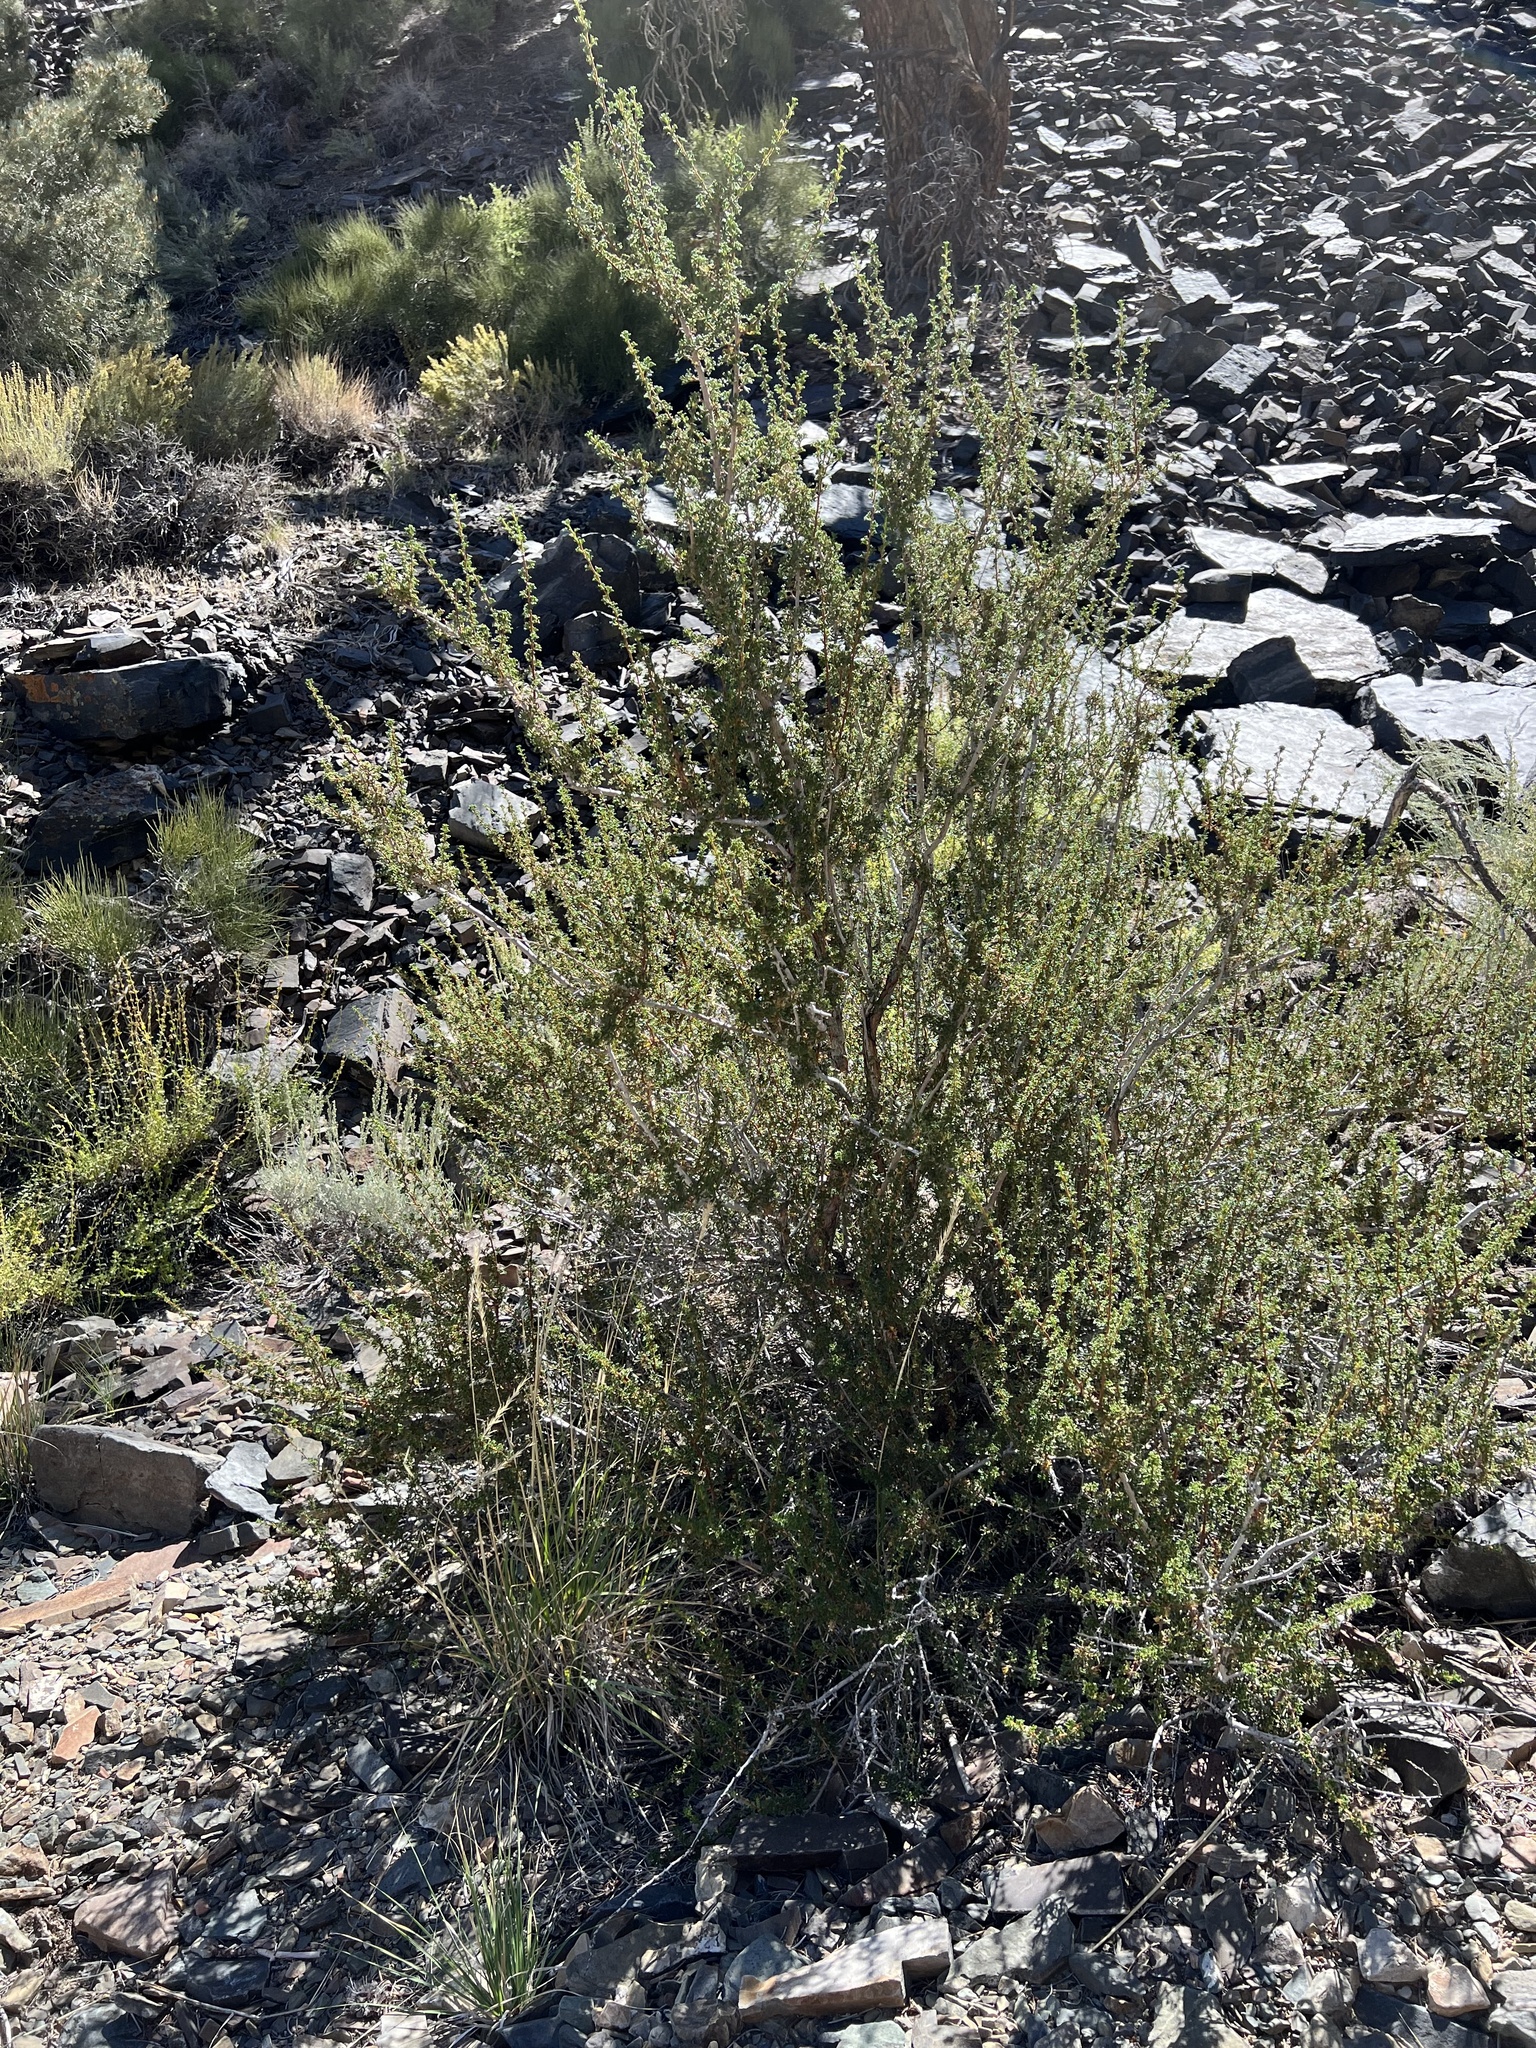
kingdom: Plantae
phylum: Tracheophyta
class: Magnoliopsida
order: Rosales
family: Rosaceae
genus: Purshia
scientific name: Purshia glandulosa
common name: Desert bitterbrush
